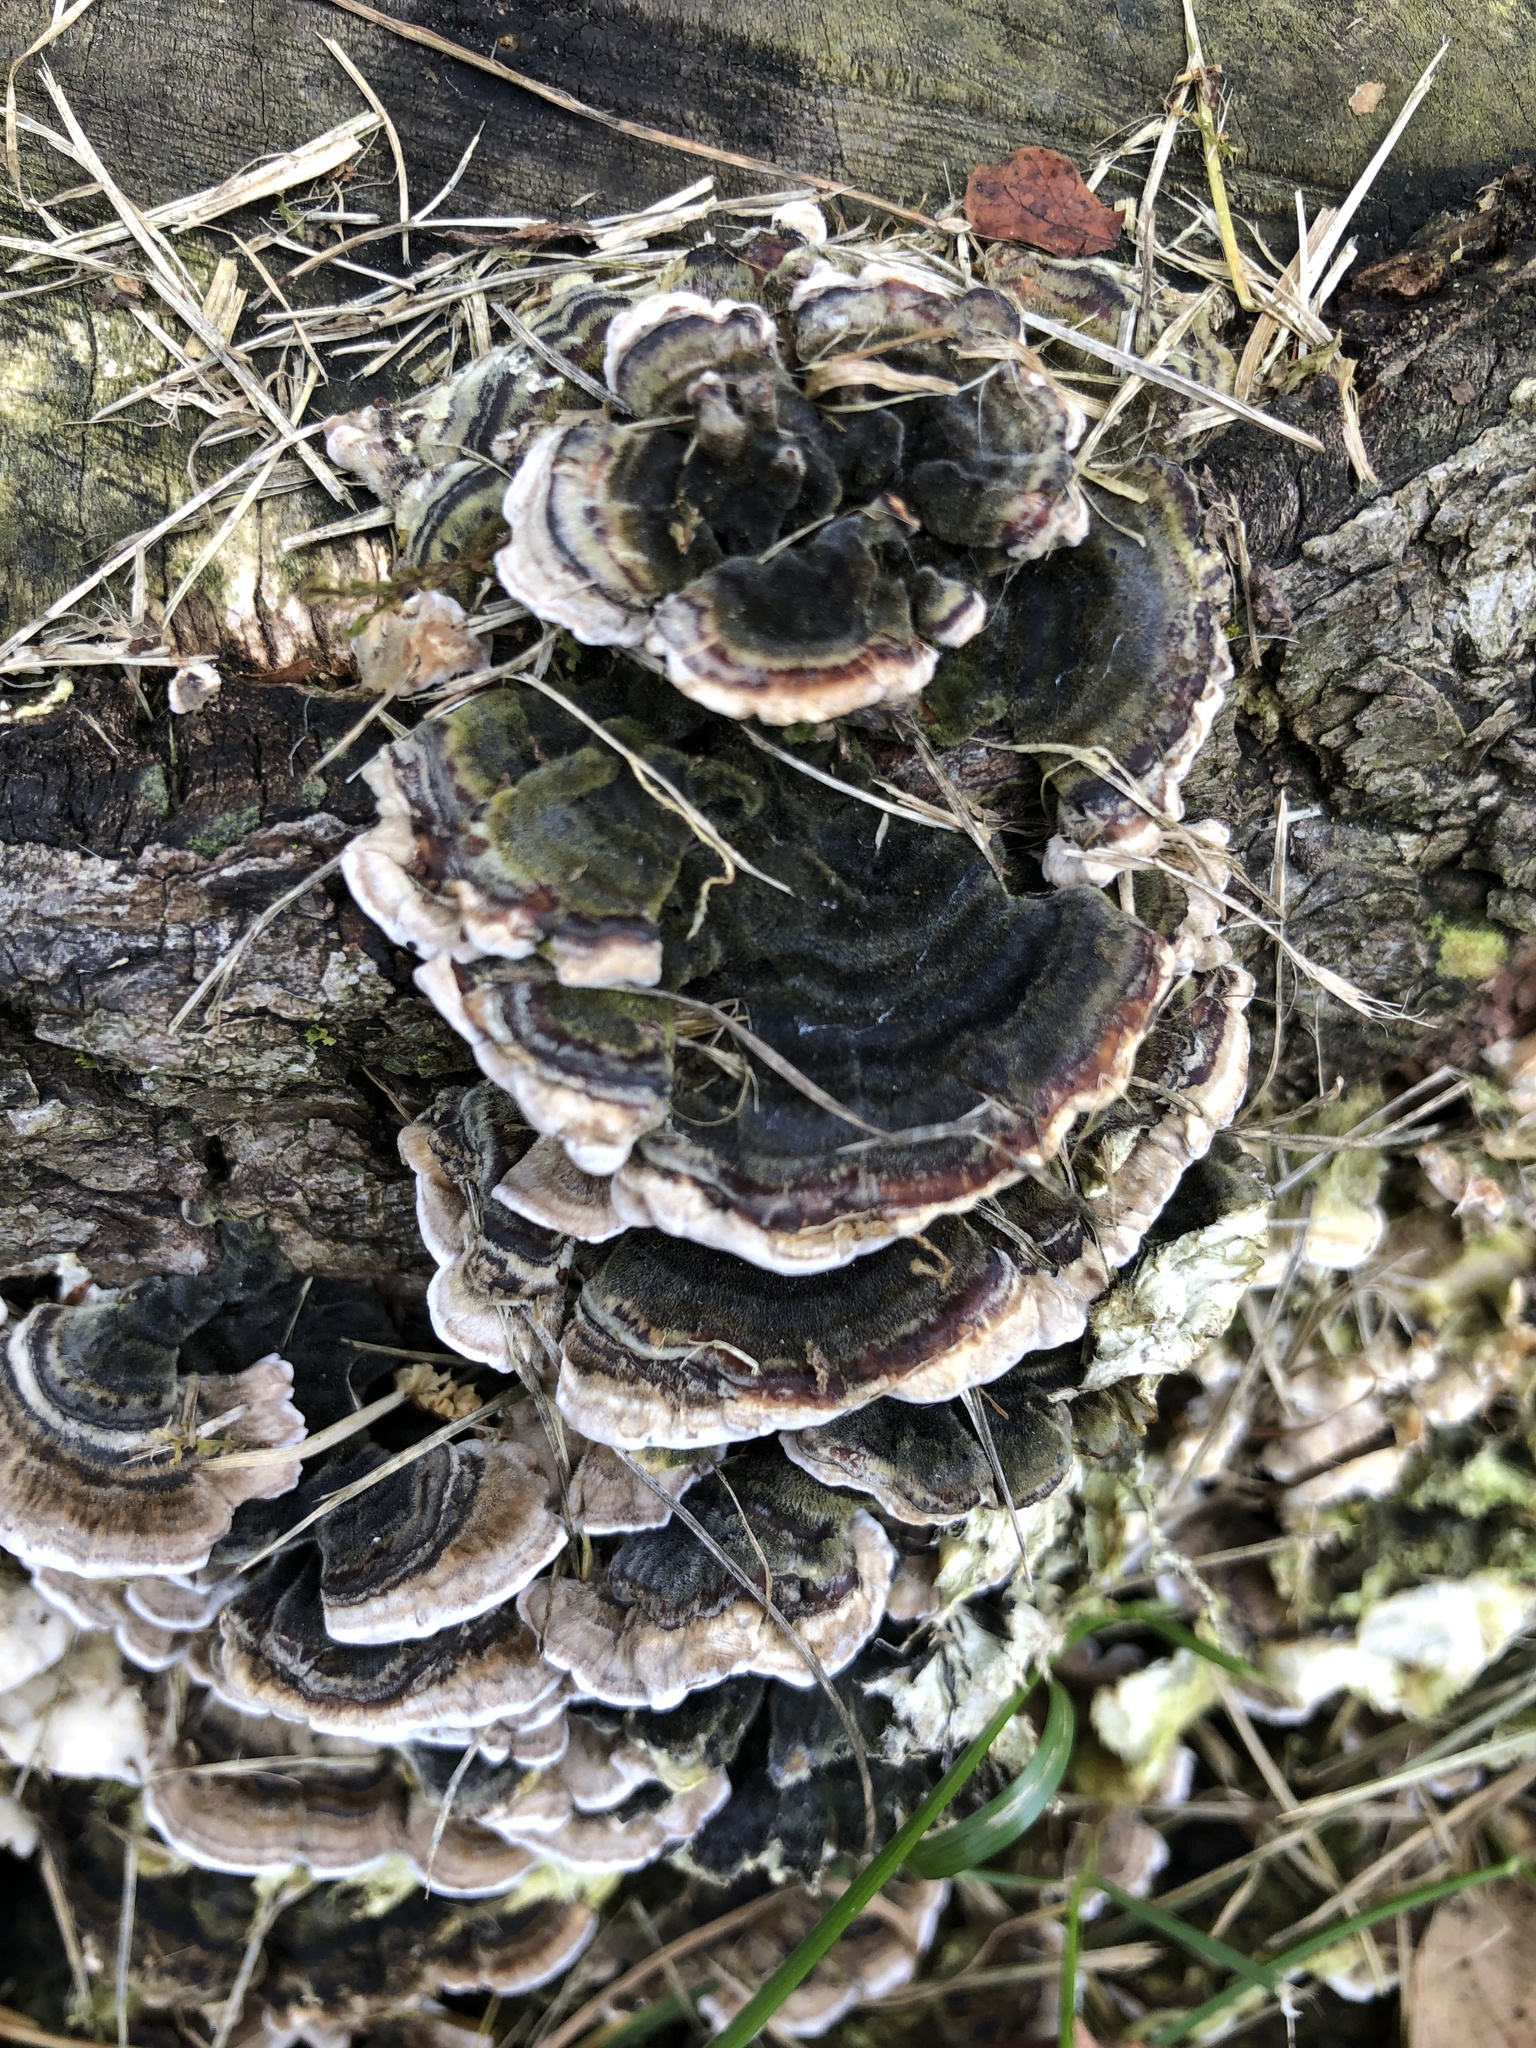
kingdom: Fungi
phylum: Basidiomycota
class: Agaricomycetes
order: Polyporales
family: Polyporaceae
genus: Trametes
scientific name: Trametes versicolor
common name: Turkeytail
